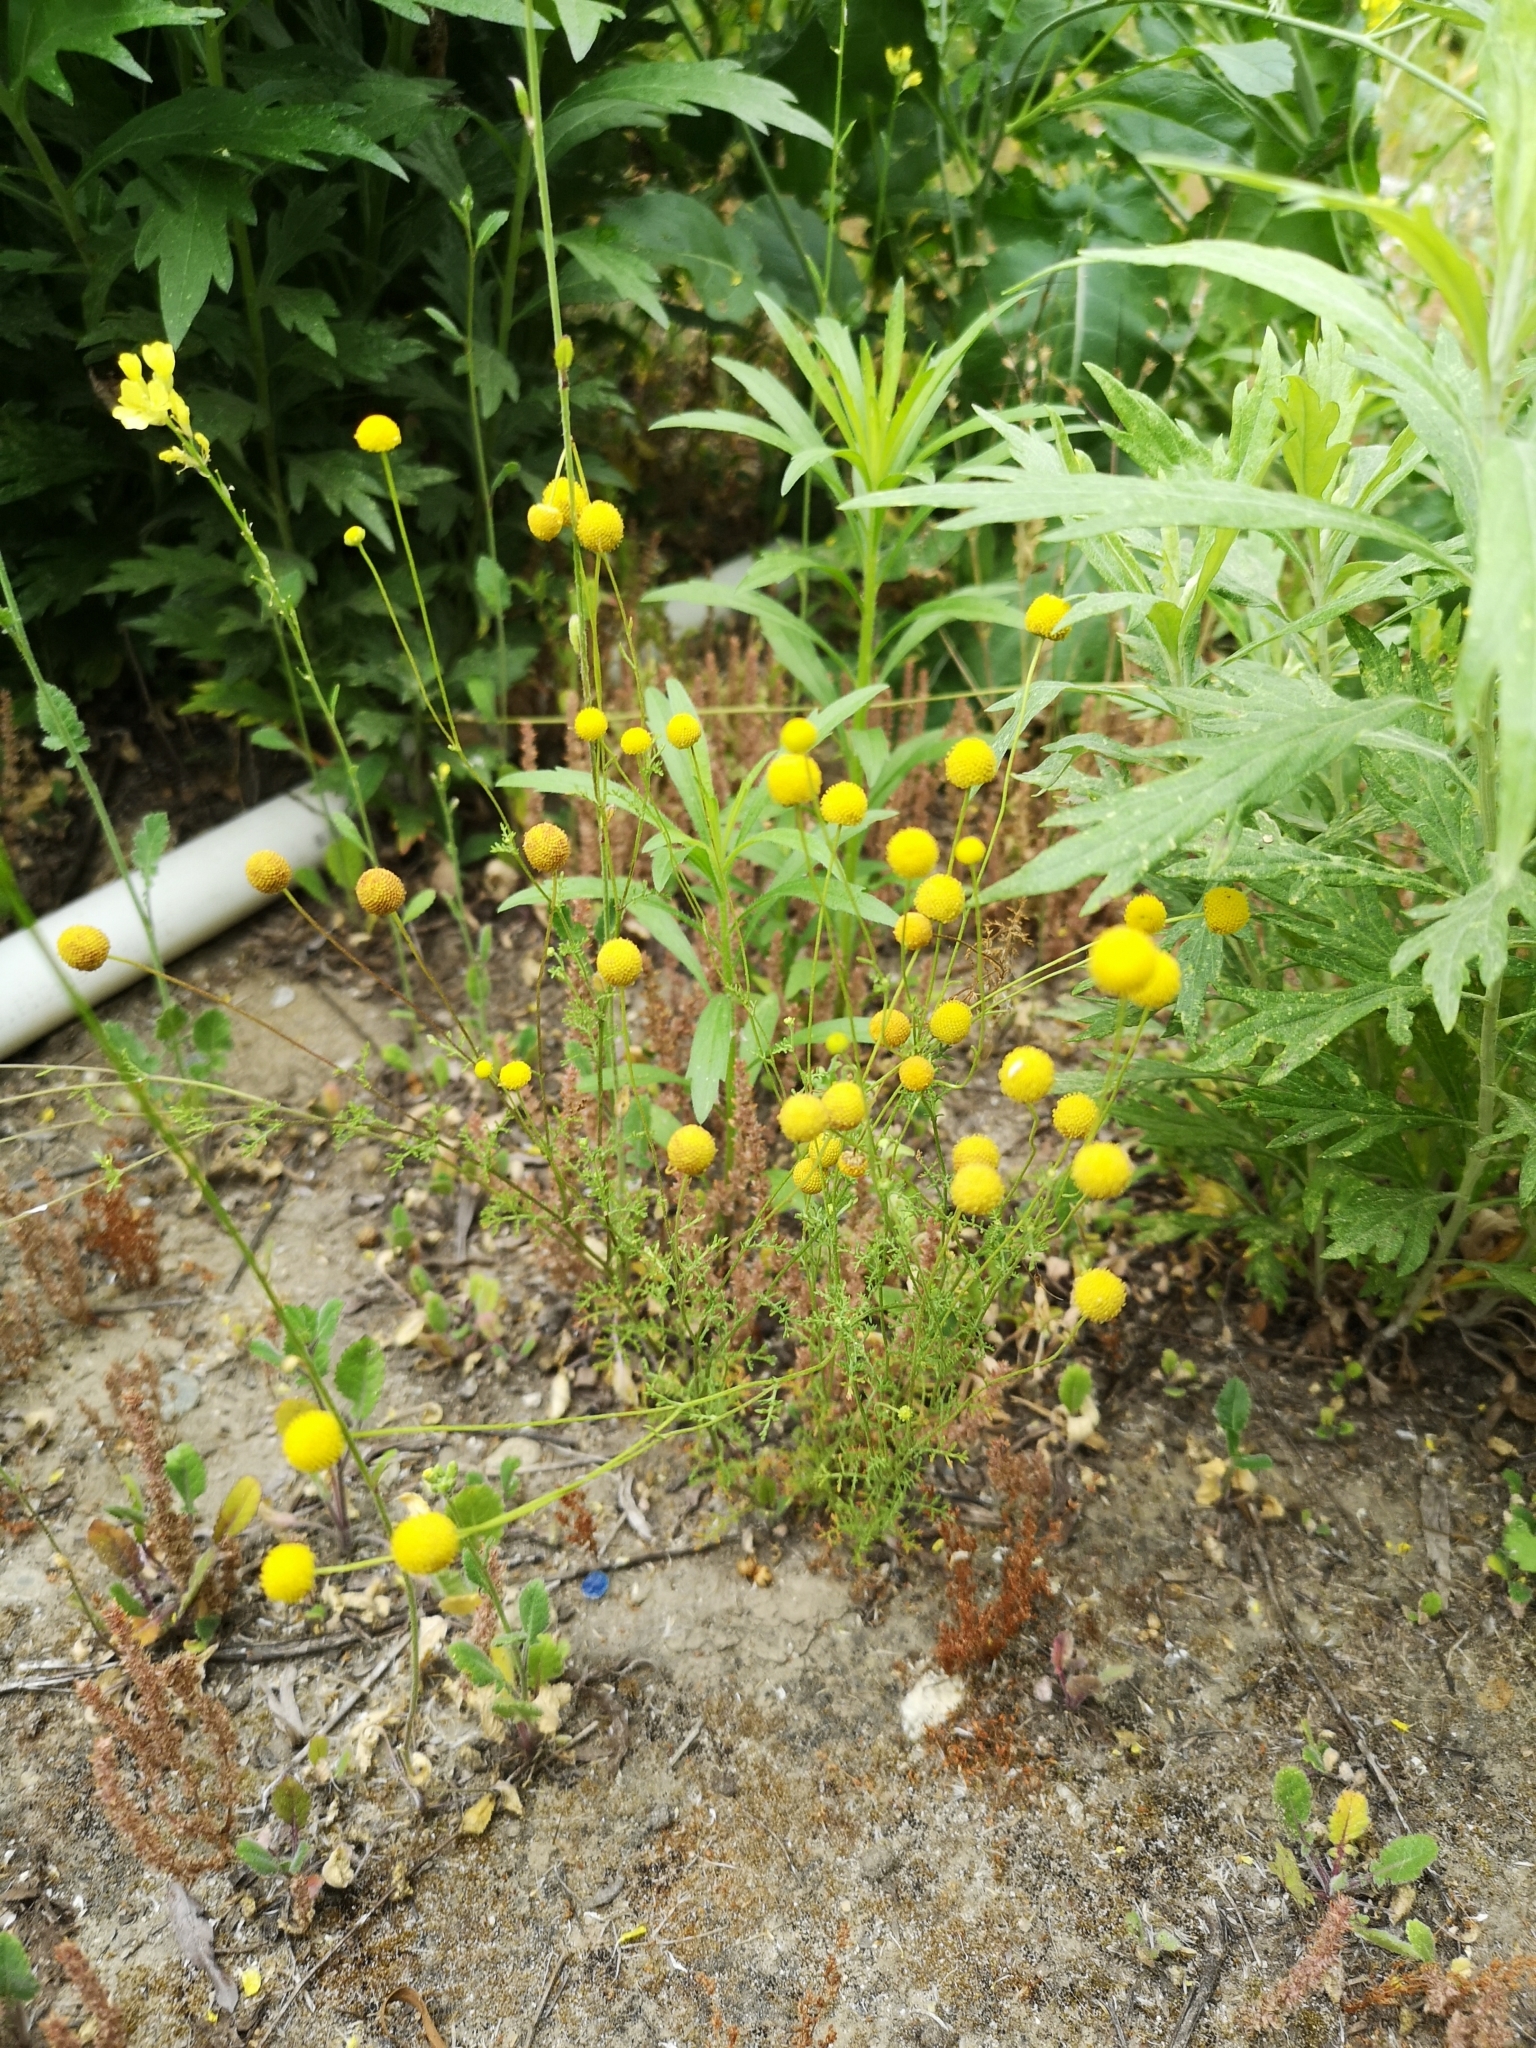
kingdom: Plantae
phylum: Tracheophyta
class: Magnoliopsida
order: Asterales
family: Asteraceae
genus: Oncosiphon
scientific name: Oncosiphon pilulifer
